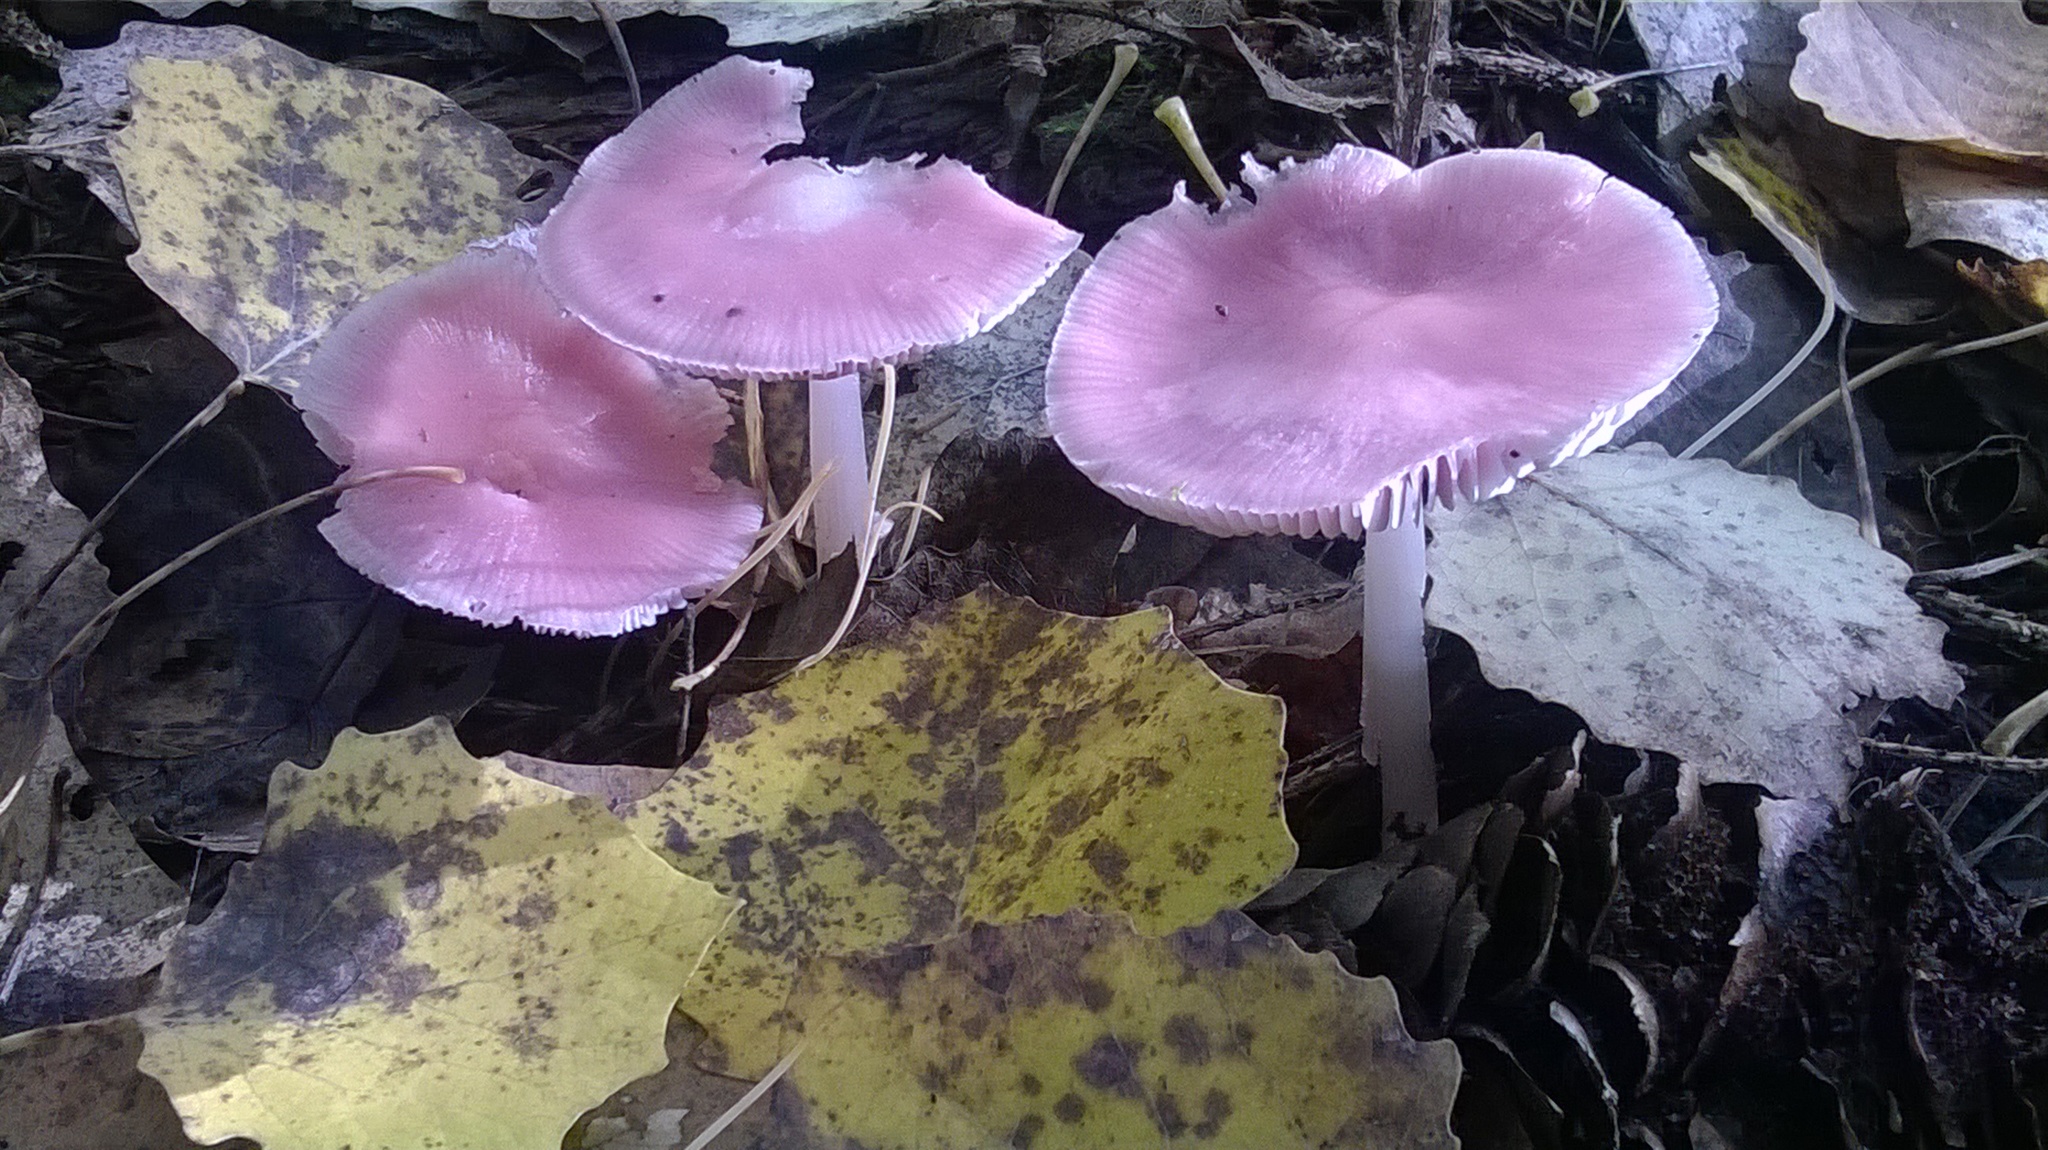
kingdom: Fungi
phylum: Basidiomycota
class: Agaricomycetes
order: Agaricales
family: Mycenaceae
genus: Mycena
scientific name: Mycena rosea
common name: Rosy bonnet
